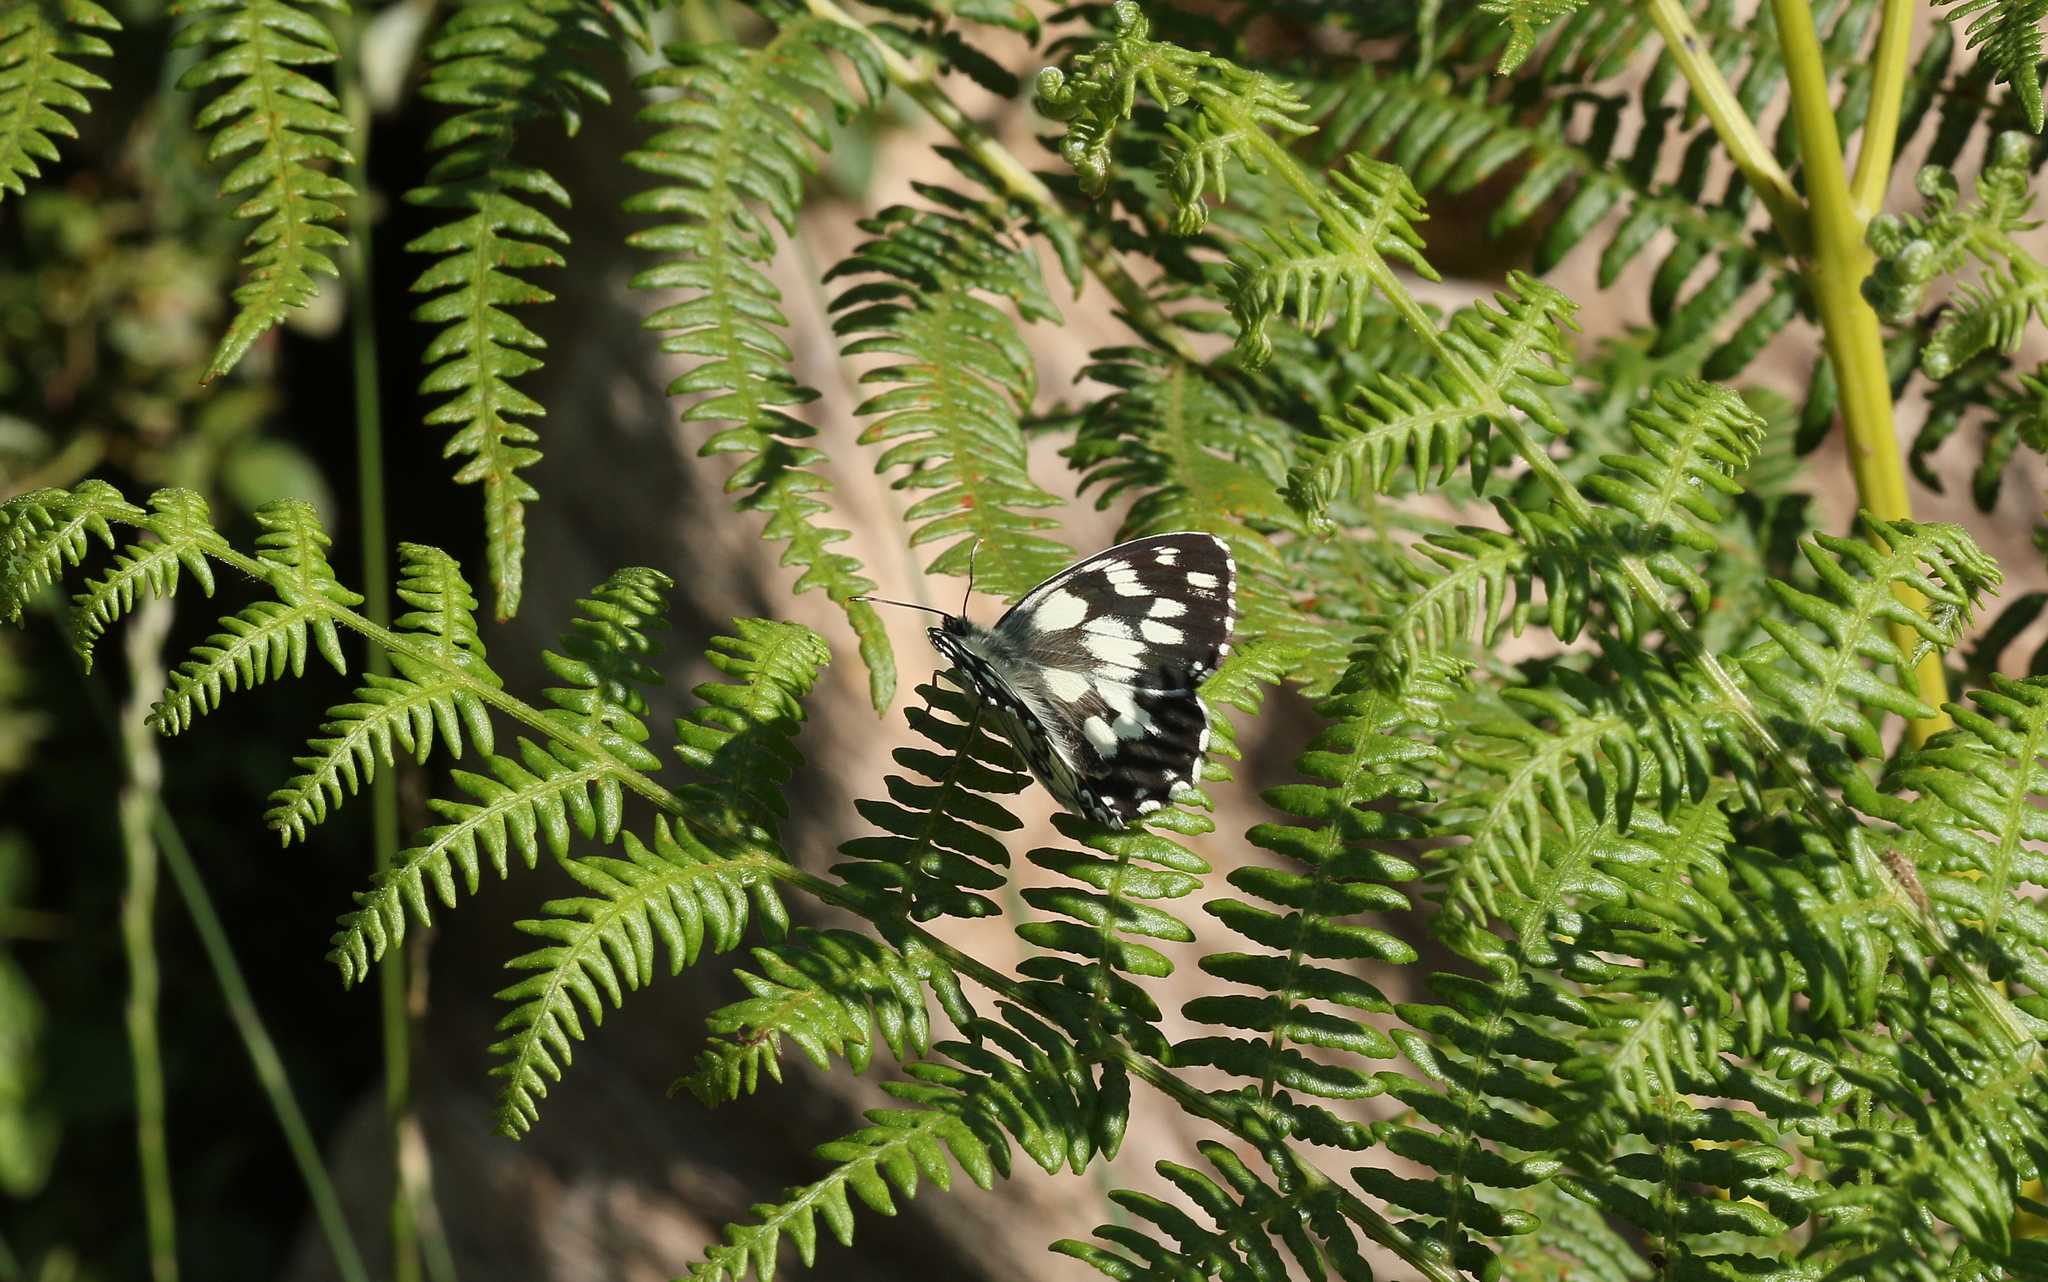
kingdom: Animalia
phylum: Arthropoda
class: Insecta
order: Lepidoptera
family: Nymphalidae
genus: Melanargia
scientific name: Melanargia galathea
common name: Marbled white
